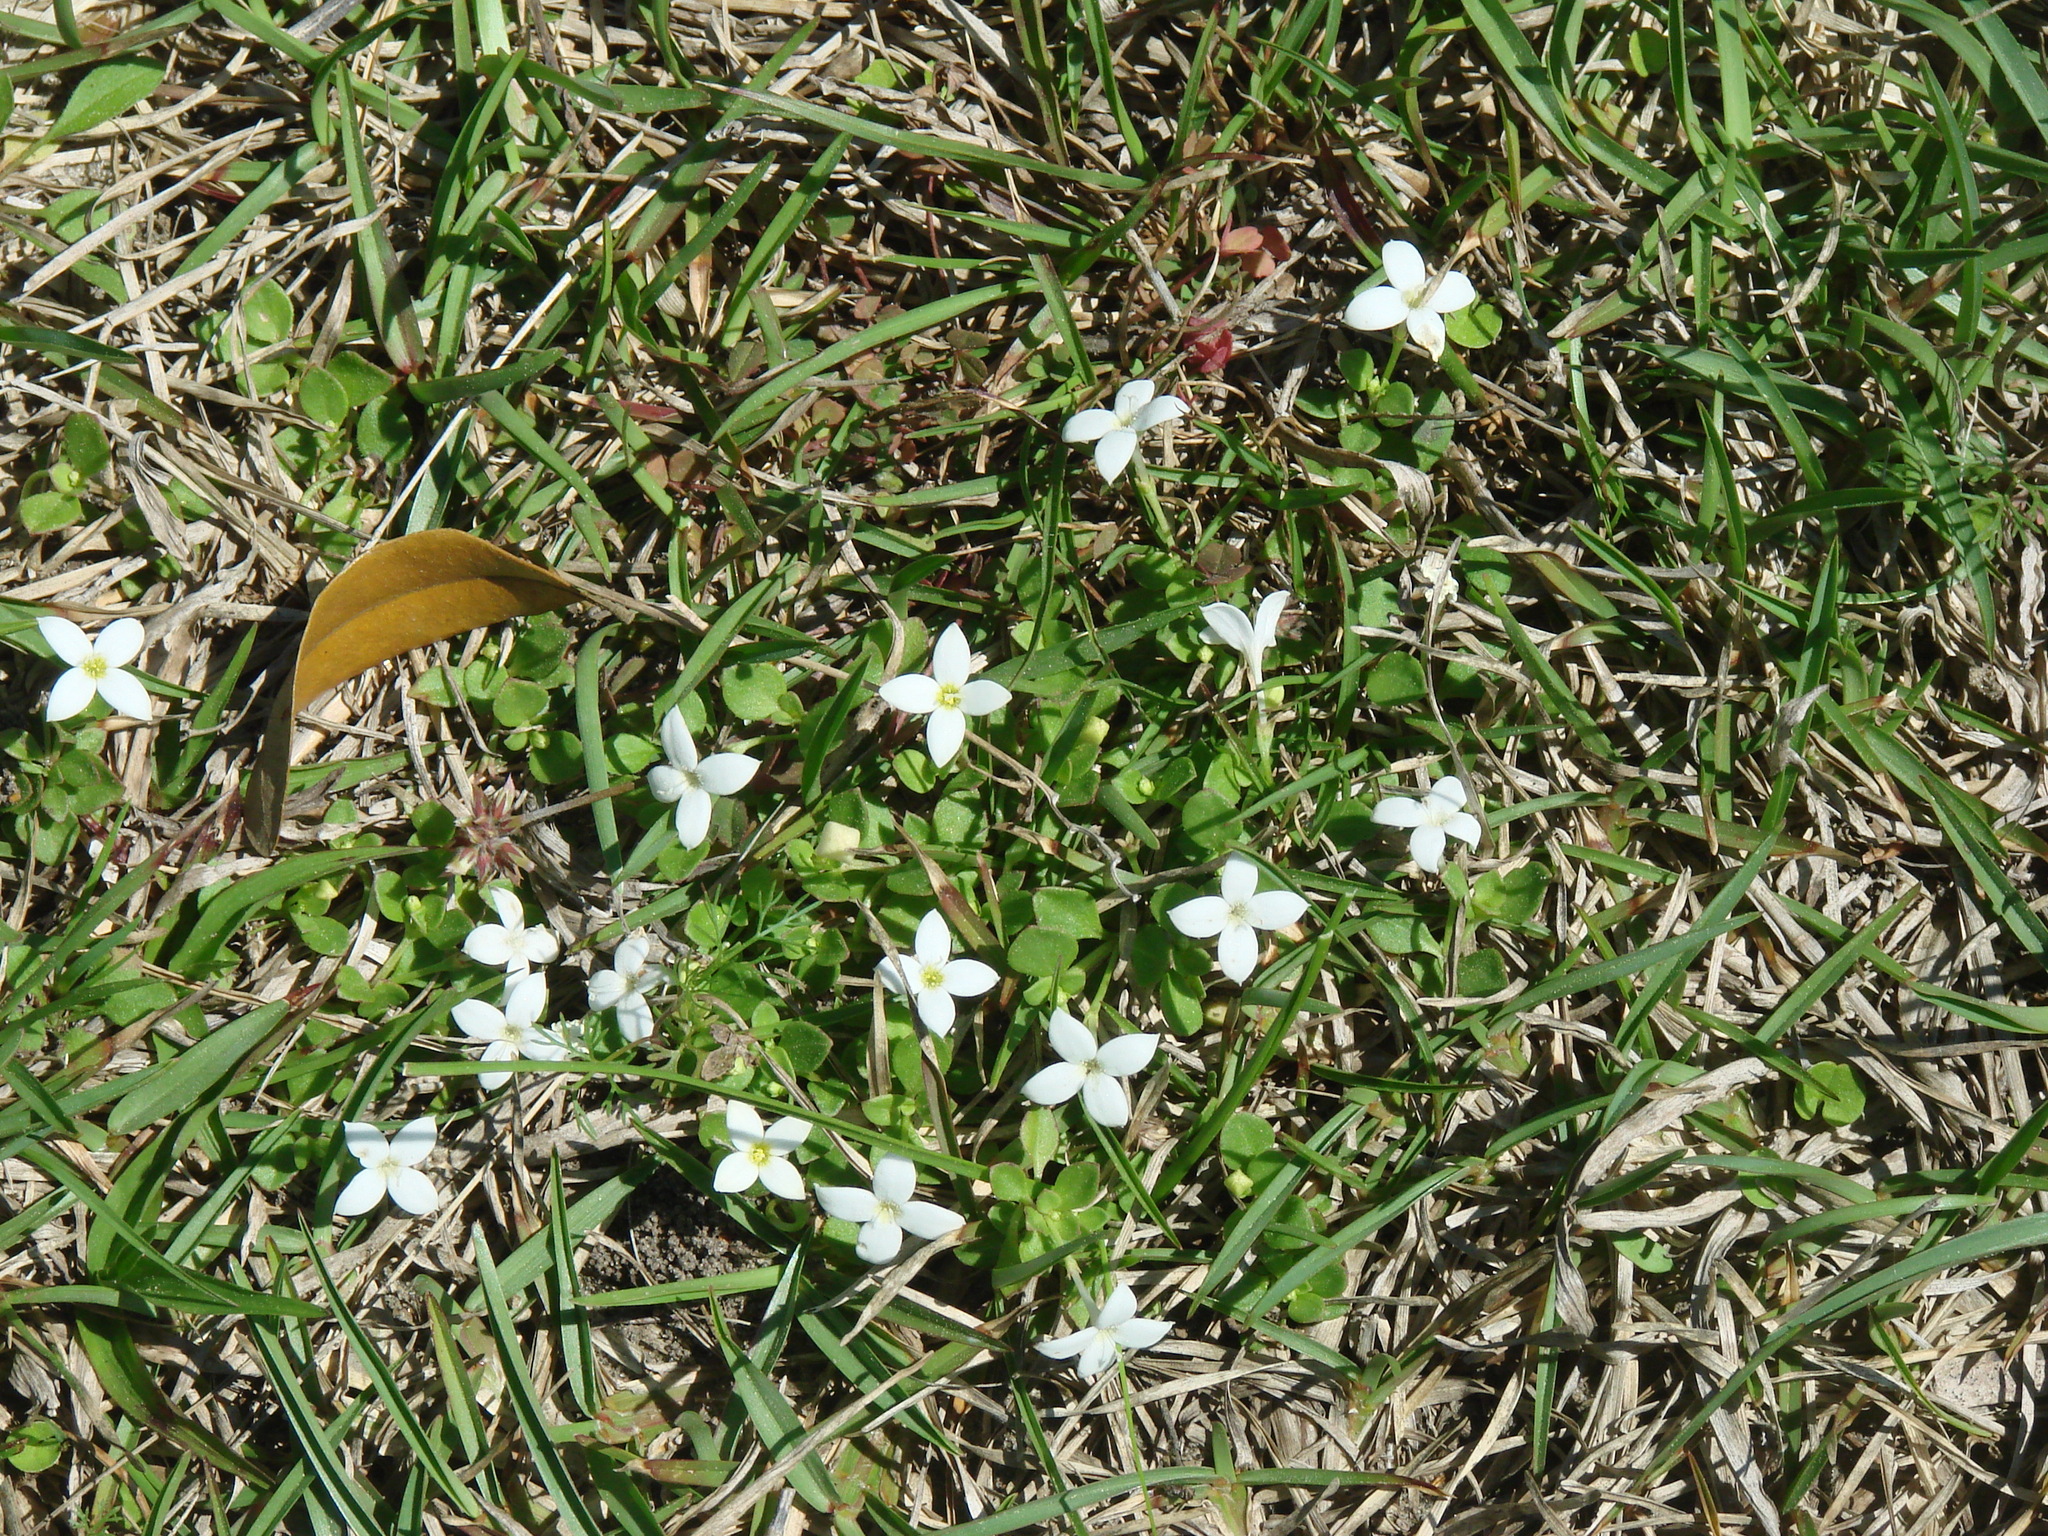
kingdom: Plantae
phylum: Tracheophyta
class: Magnoliopsida
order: Gentianales
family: Rubiaceae
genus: Houstonia
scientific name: Houstonia procumbens
